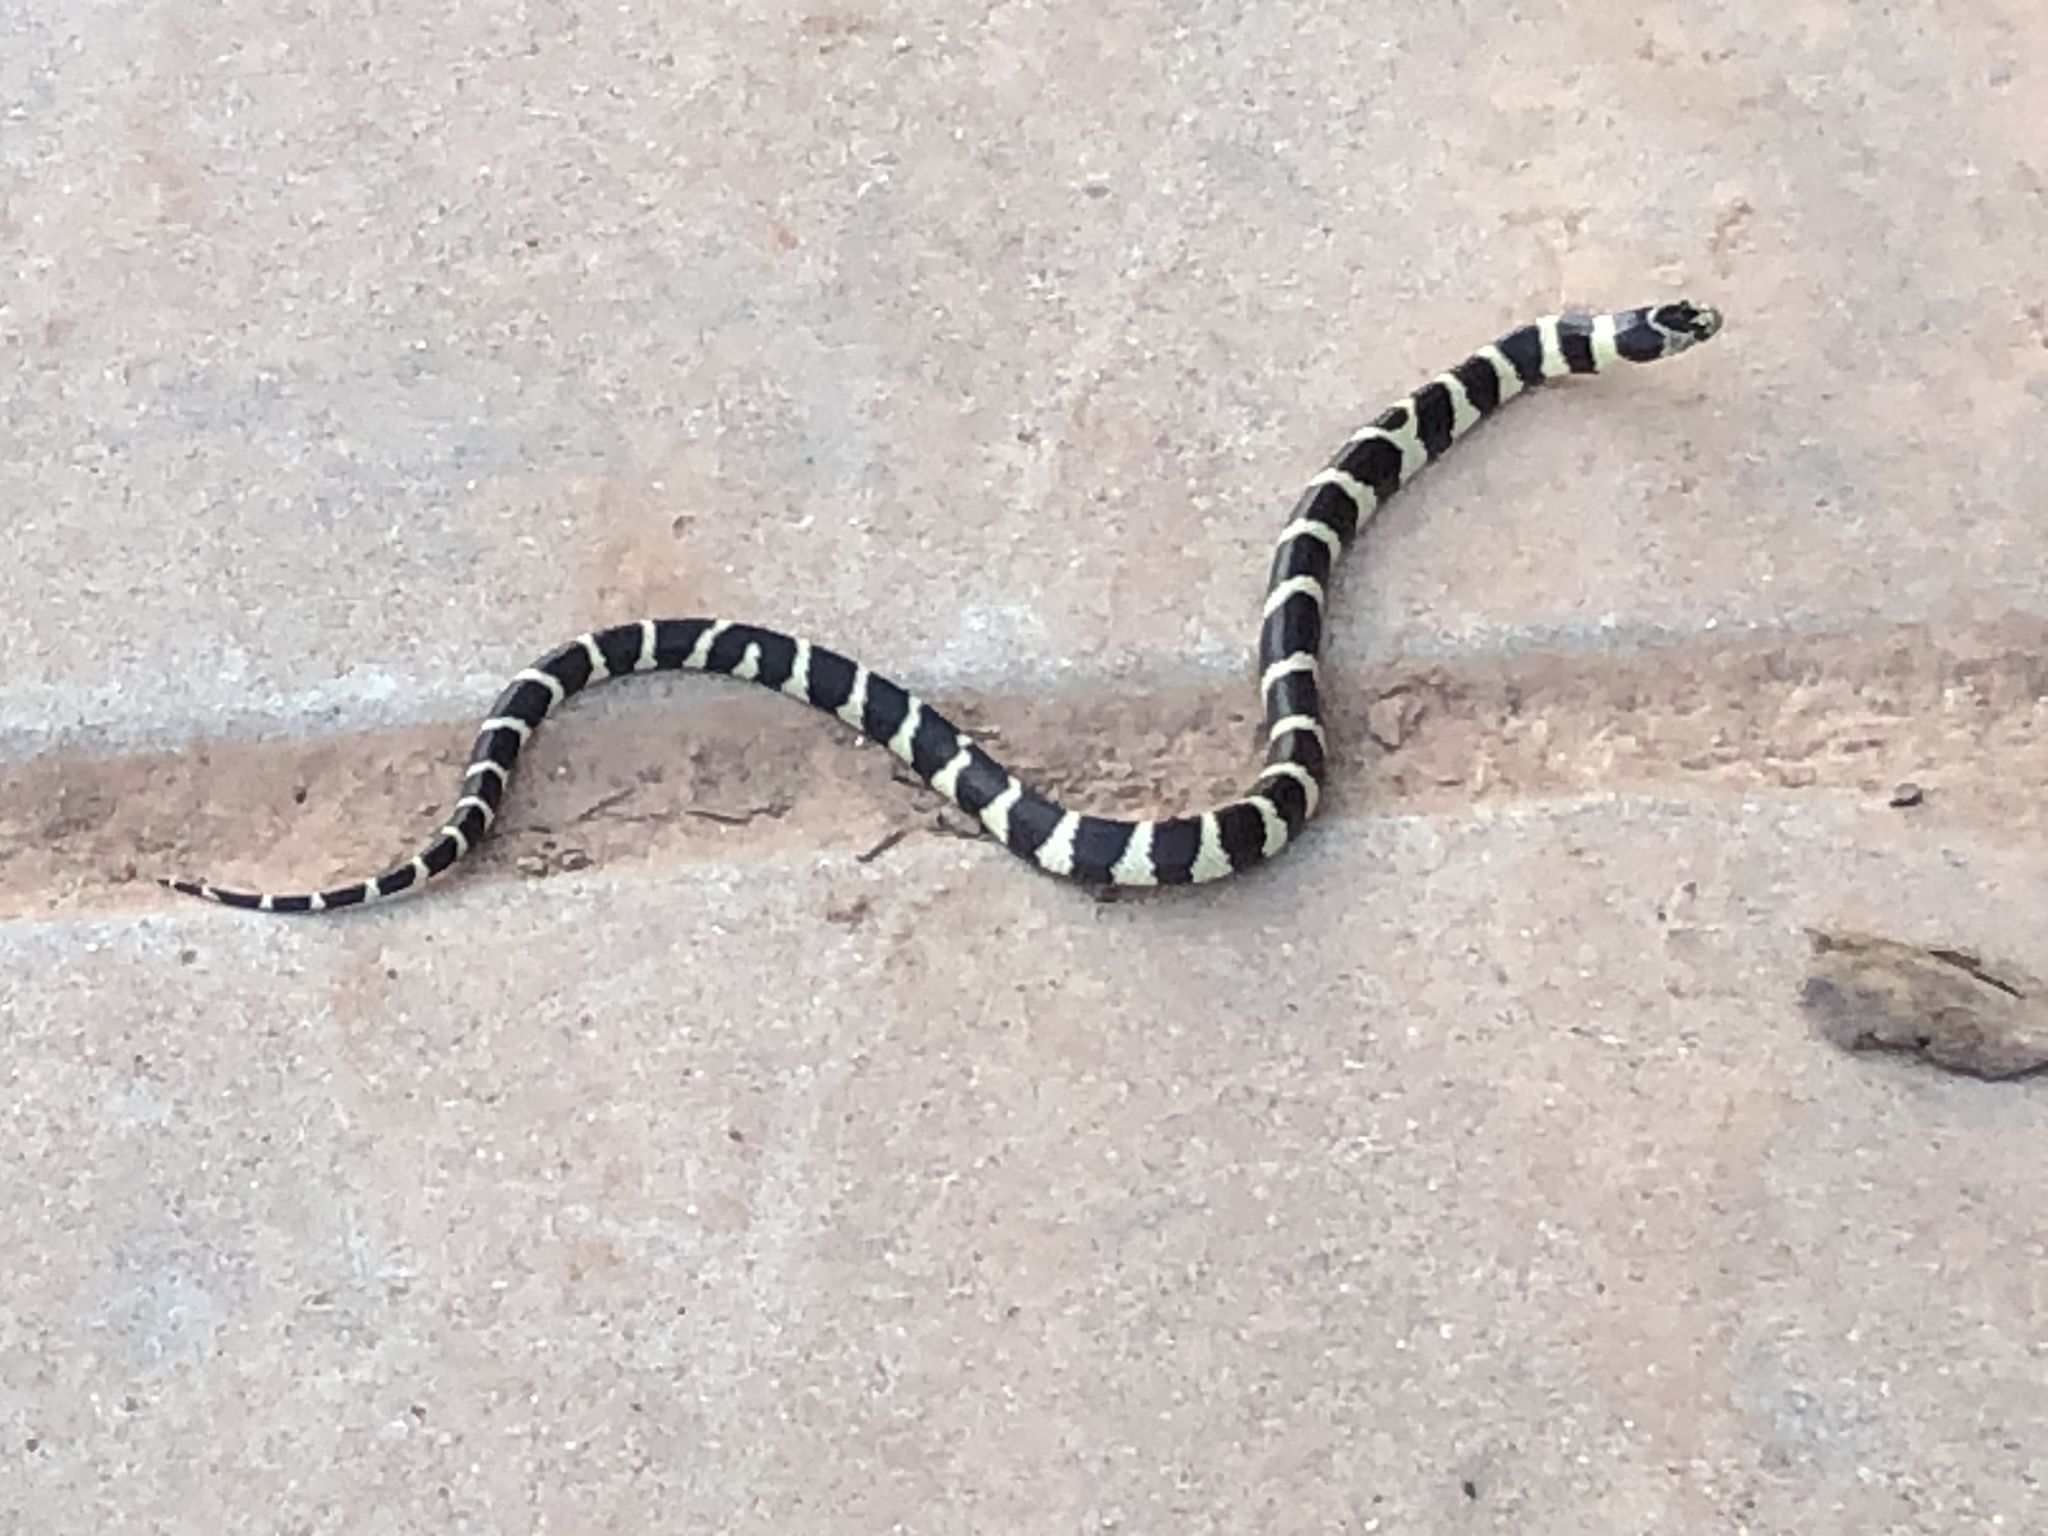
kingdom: Animalia
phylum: Chordata
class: Squamata
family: Colubridae
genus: Lampropeltis
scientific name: Lampropeltis californiae
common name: California kingsnake
